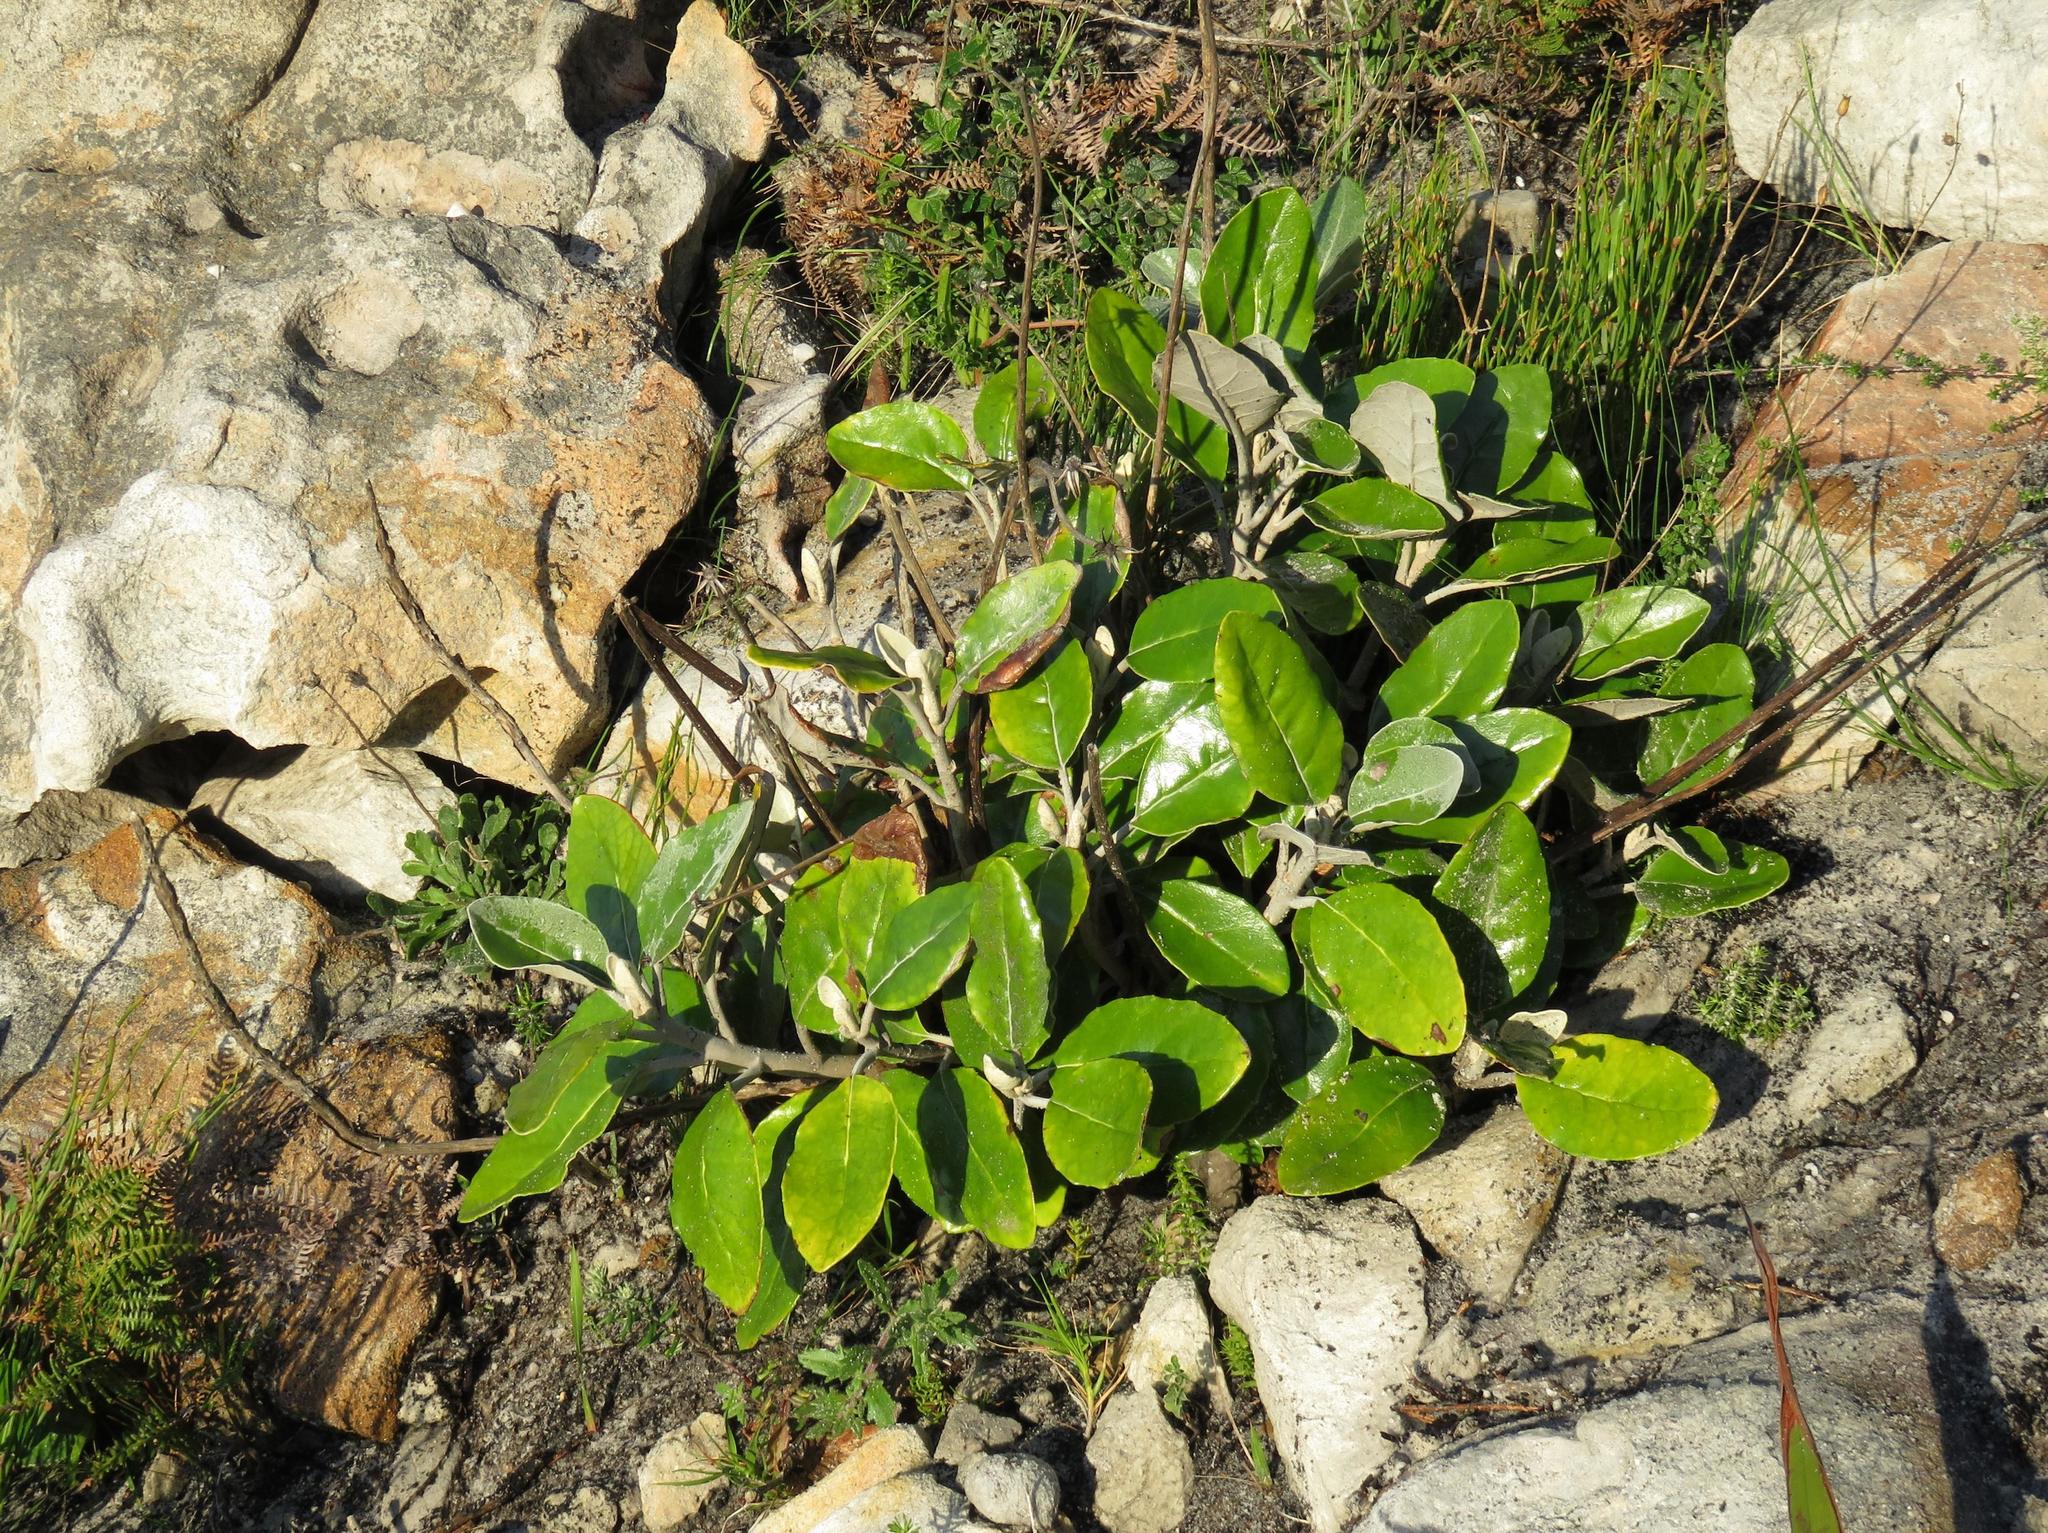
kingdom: Plantae
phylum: Tracheophyta
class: Magnoliopsida
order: Apiales
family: Apiaceae
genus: Hermas
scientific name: Hermas villosa
